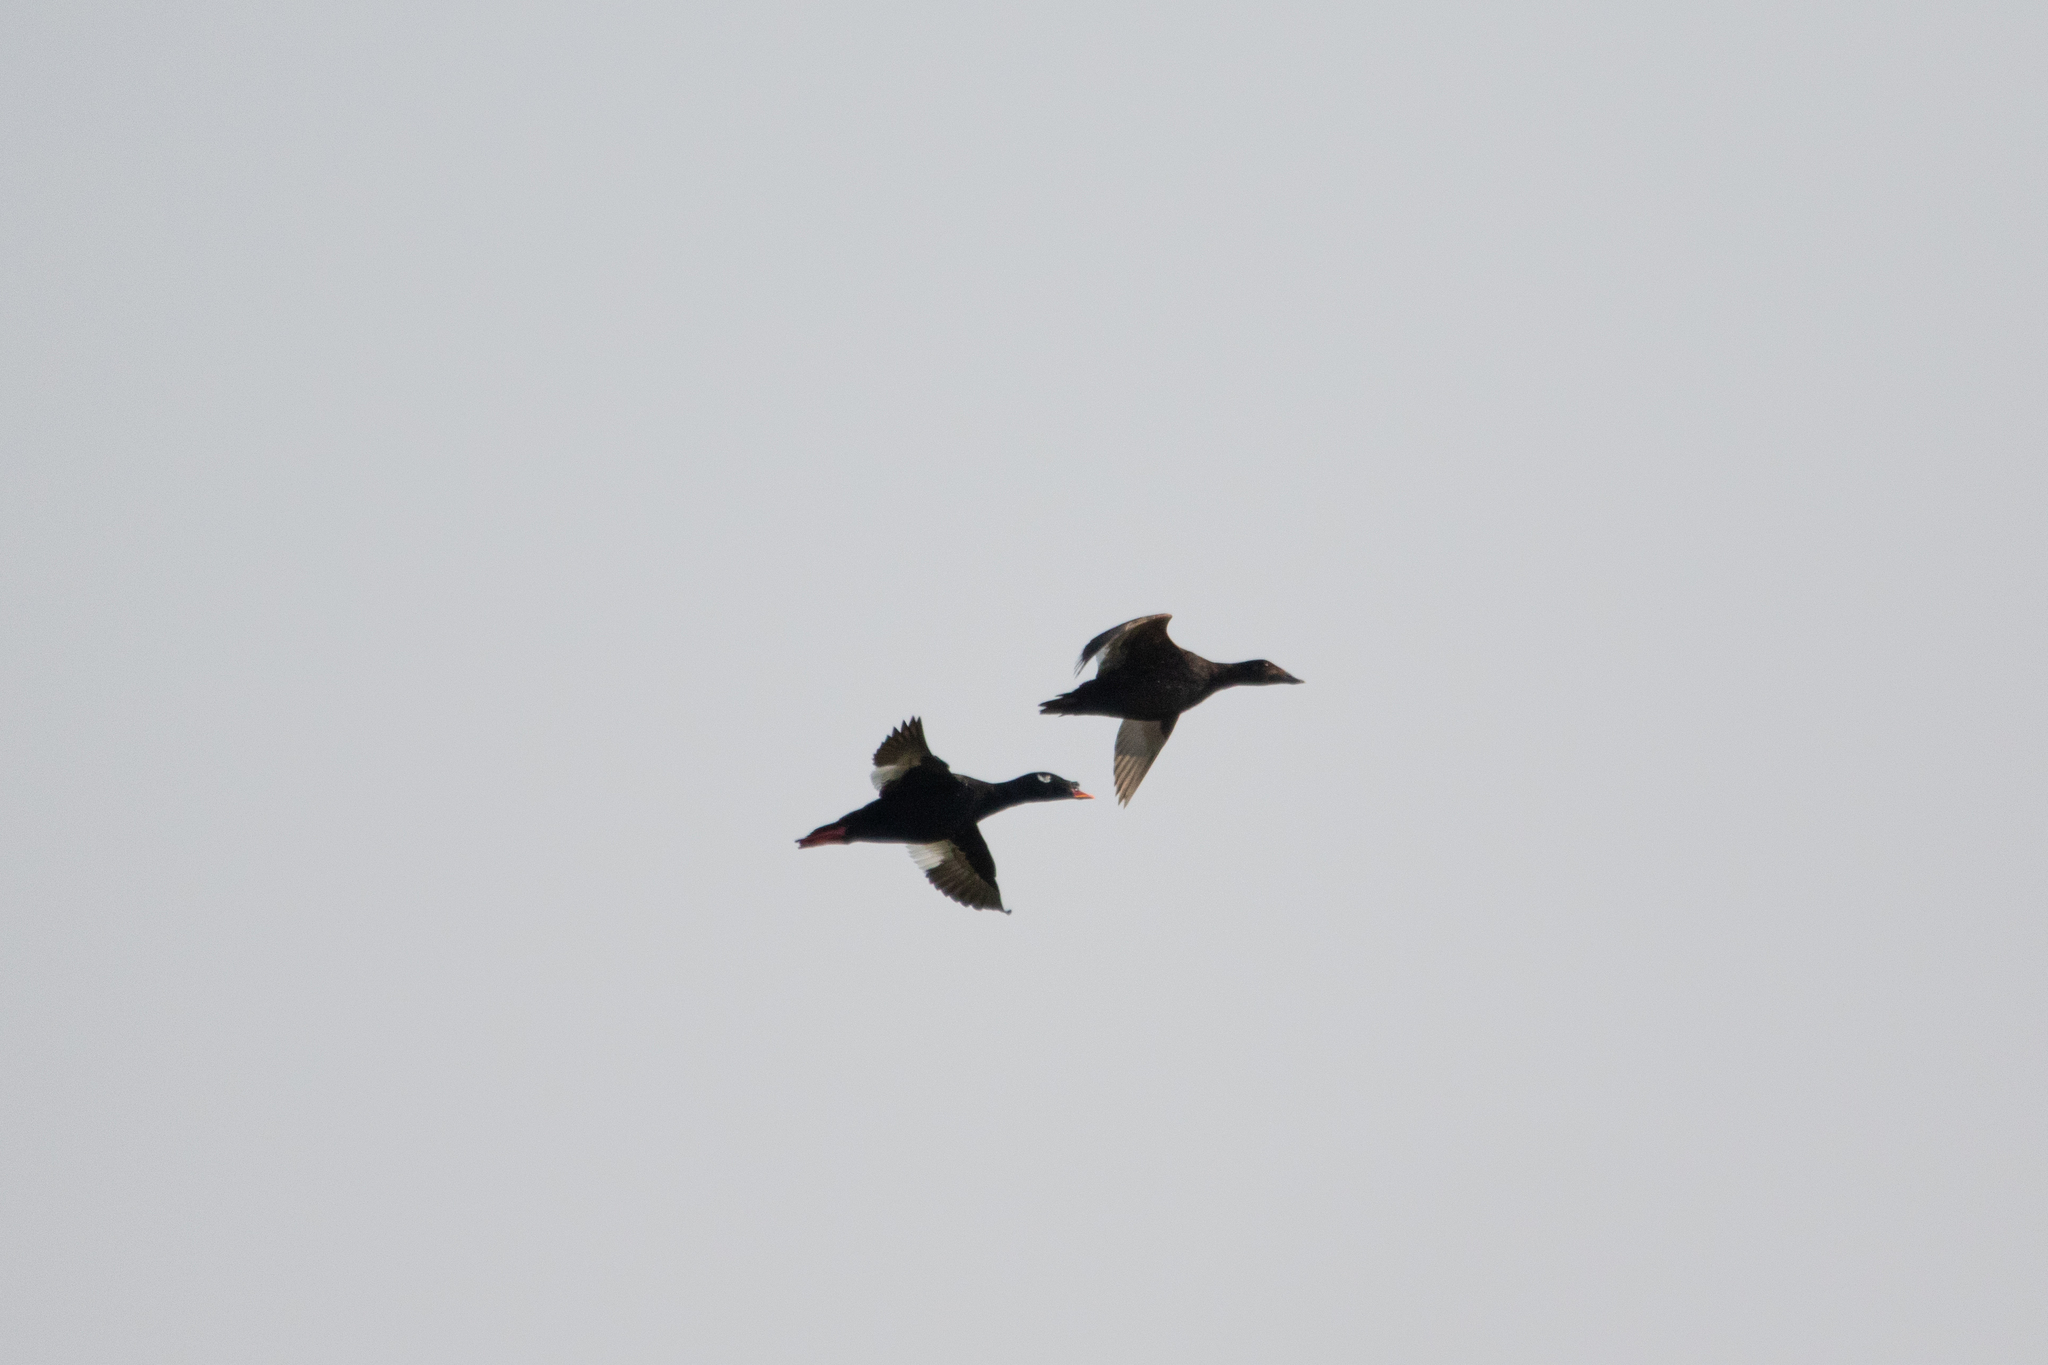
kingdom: Animalia
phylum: Chordata
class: Aves
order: Anseriformes
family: Anatidae
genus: Melanitta
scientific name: Melanitta stejnegeri
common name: Stejneger's scoter
